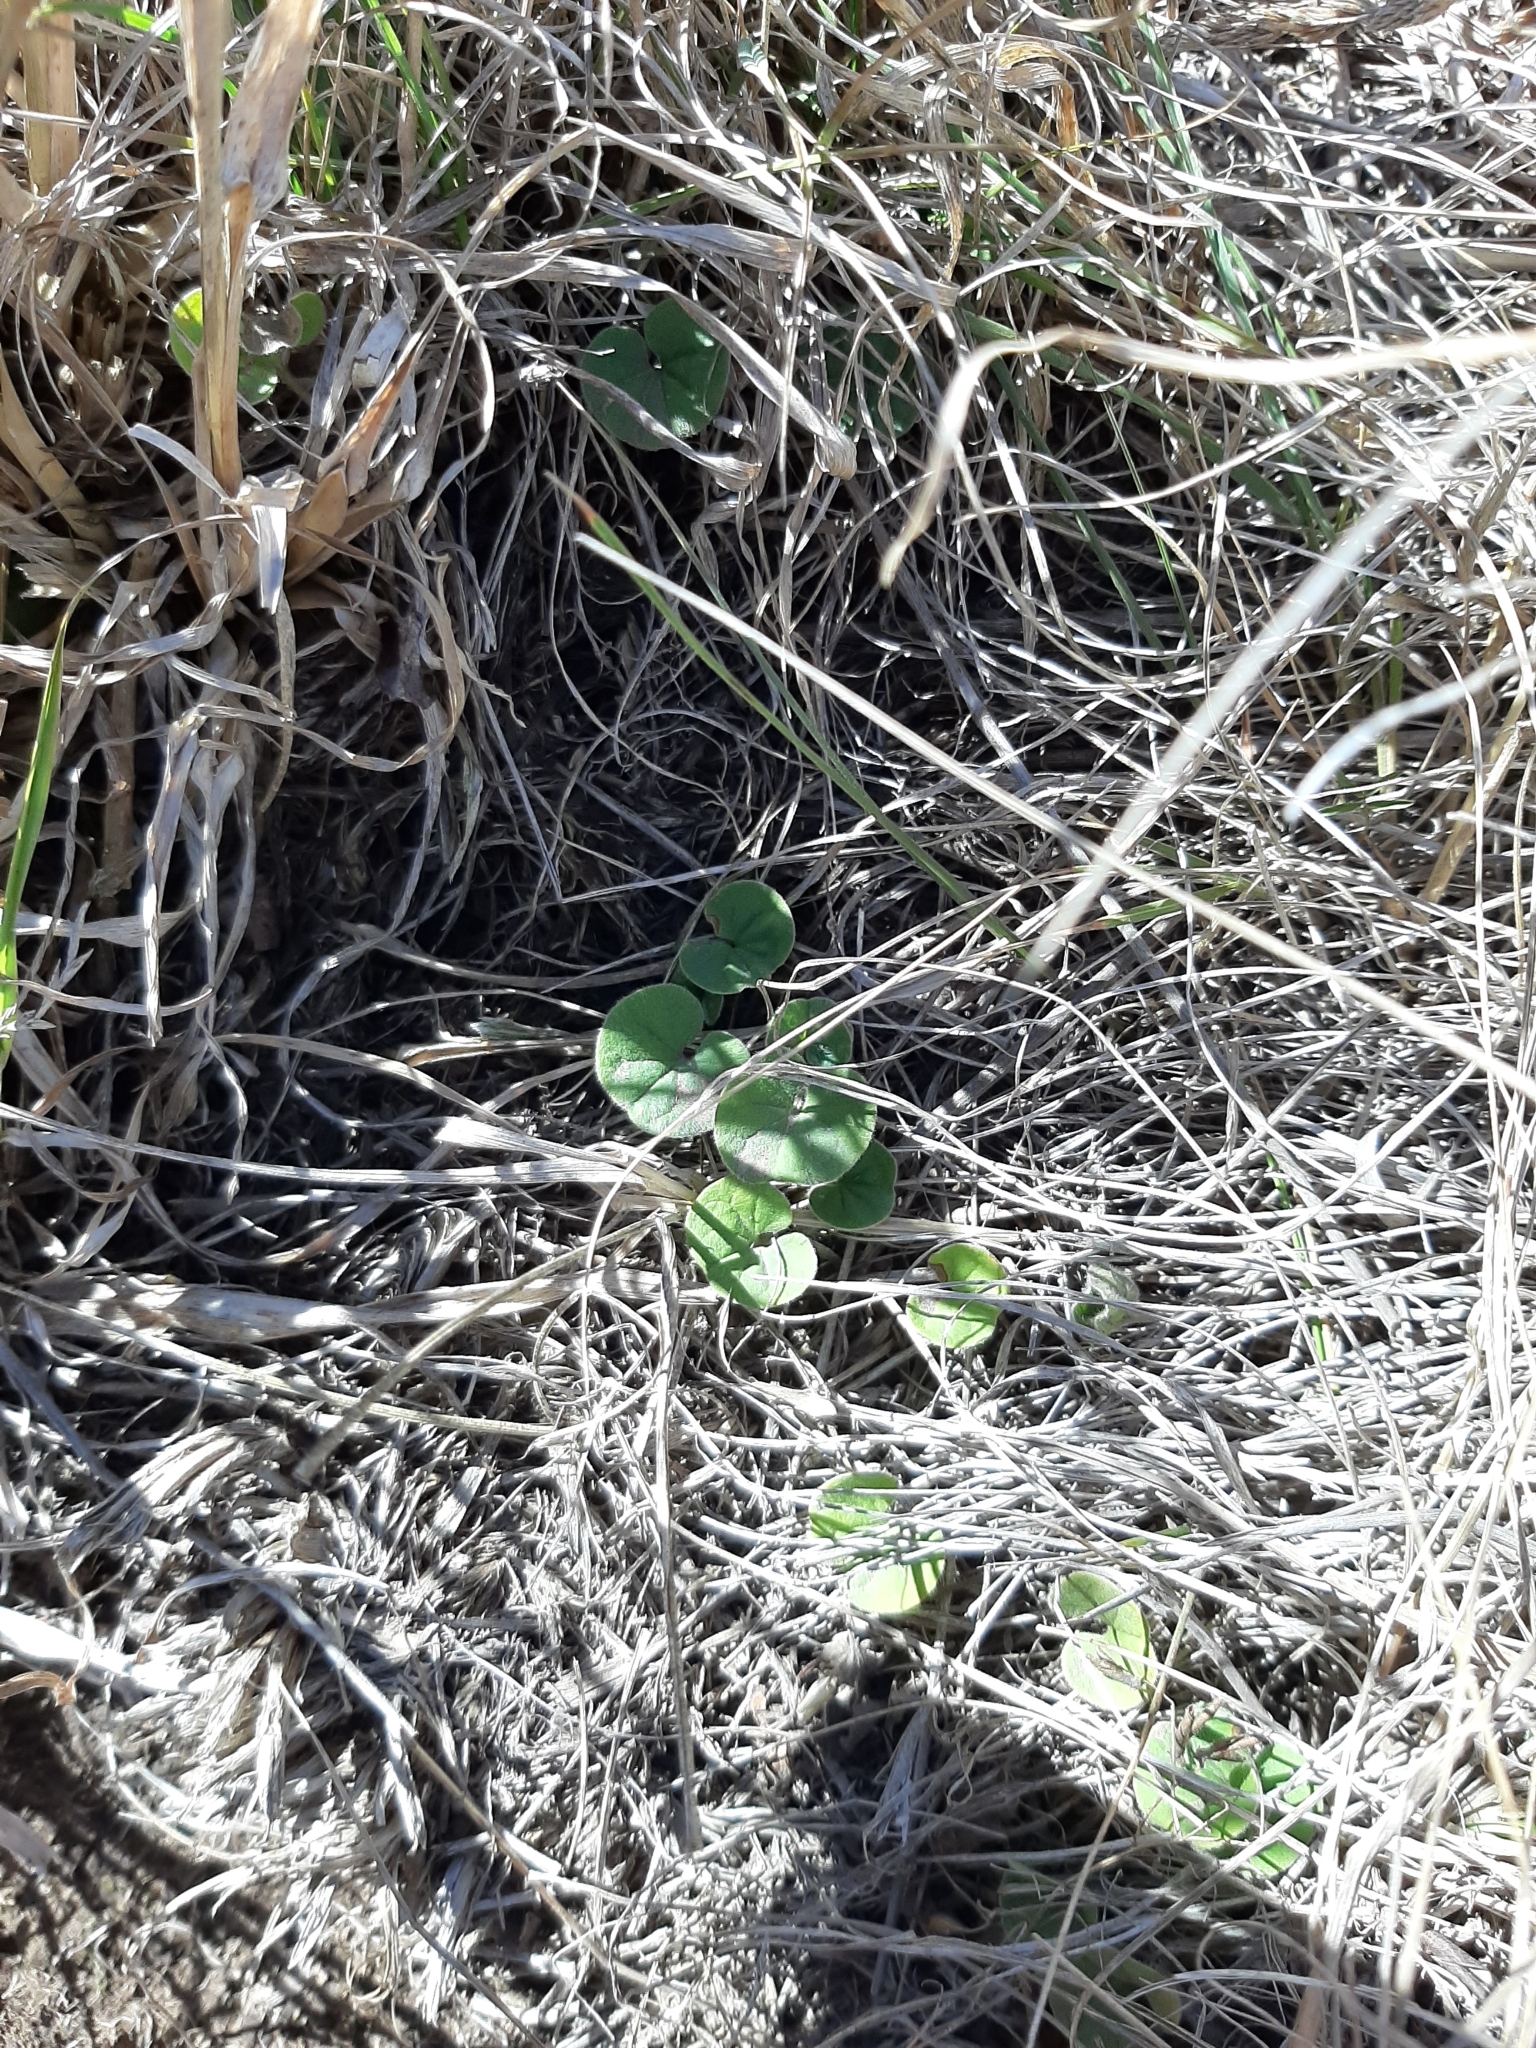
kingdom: Plantae
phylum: Tracheophyta
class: Magnoliopsida
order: Solanales
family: Convolvulaceae
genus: Dichondra
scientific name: Dichondra repens
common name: Kidneyweed
